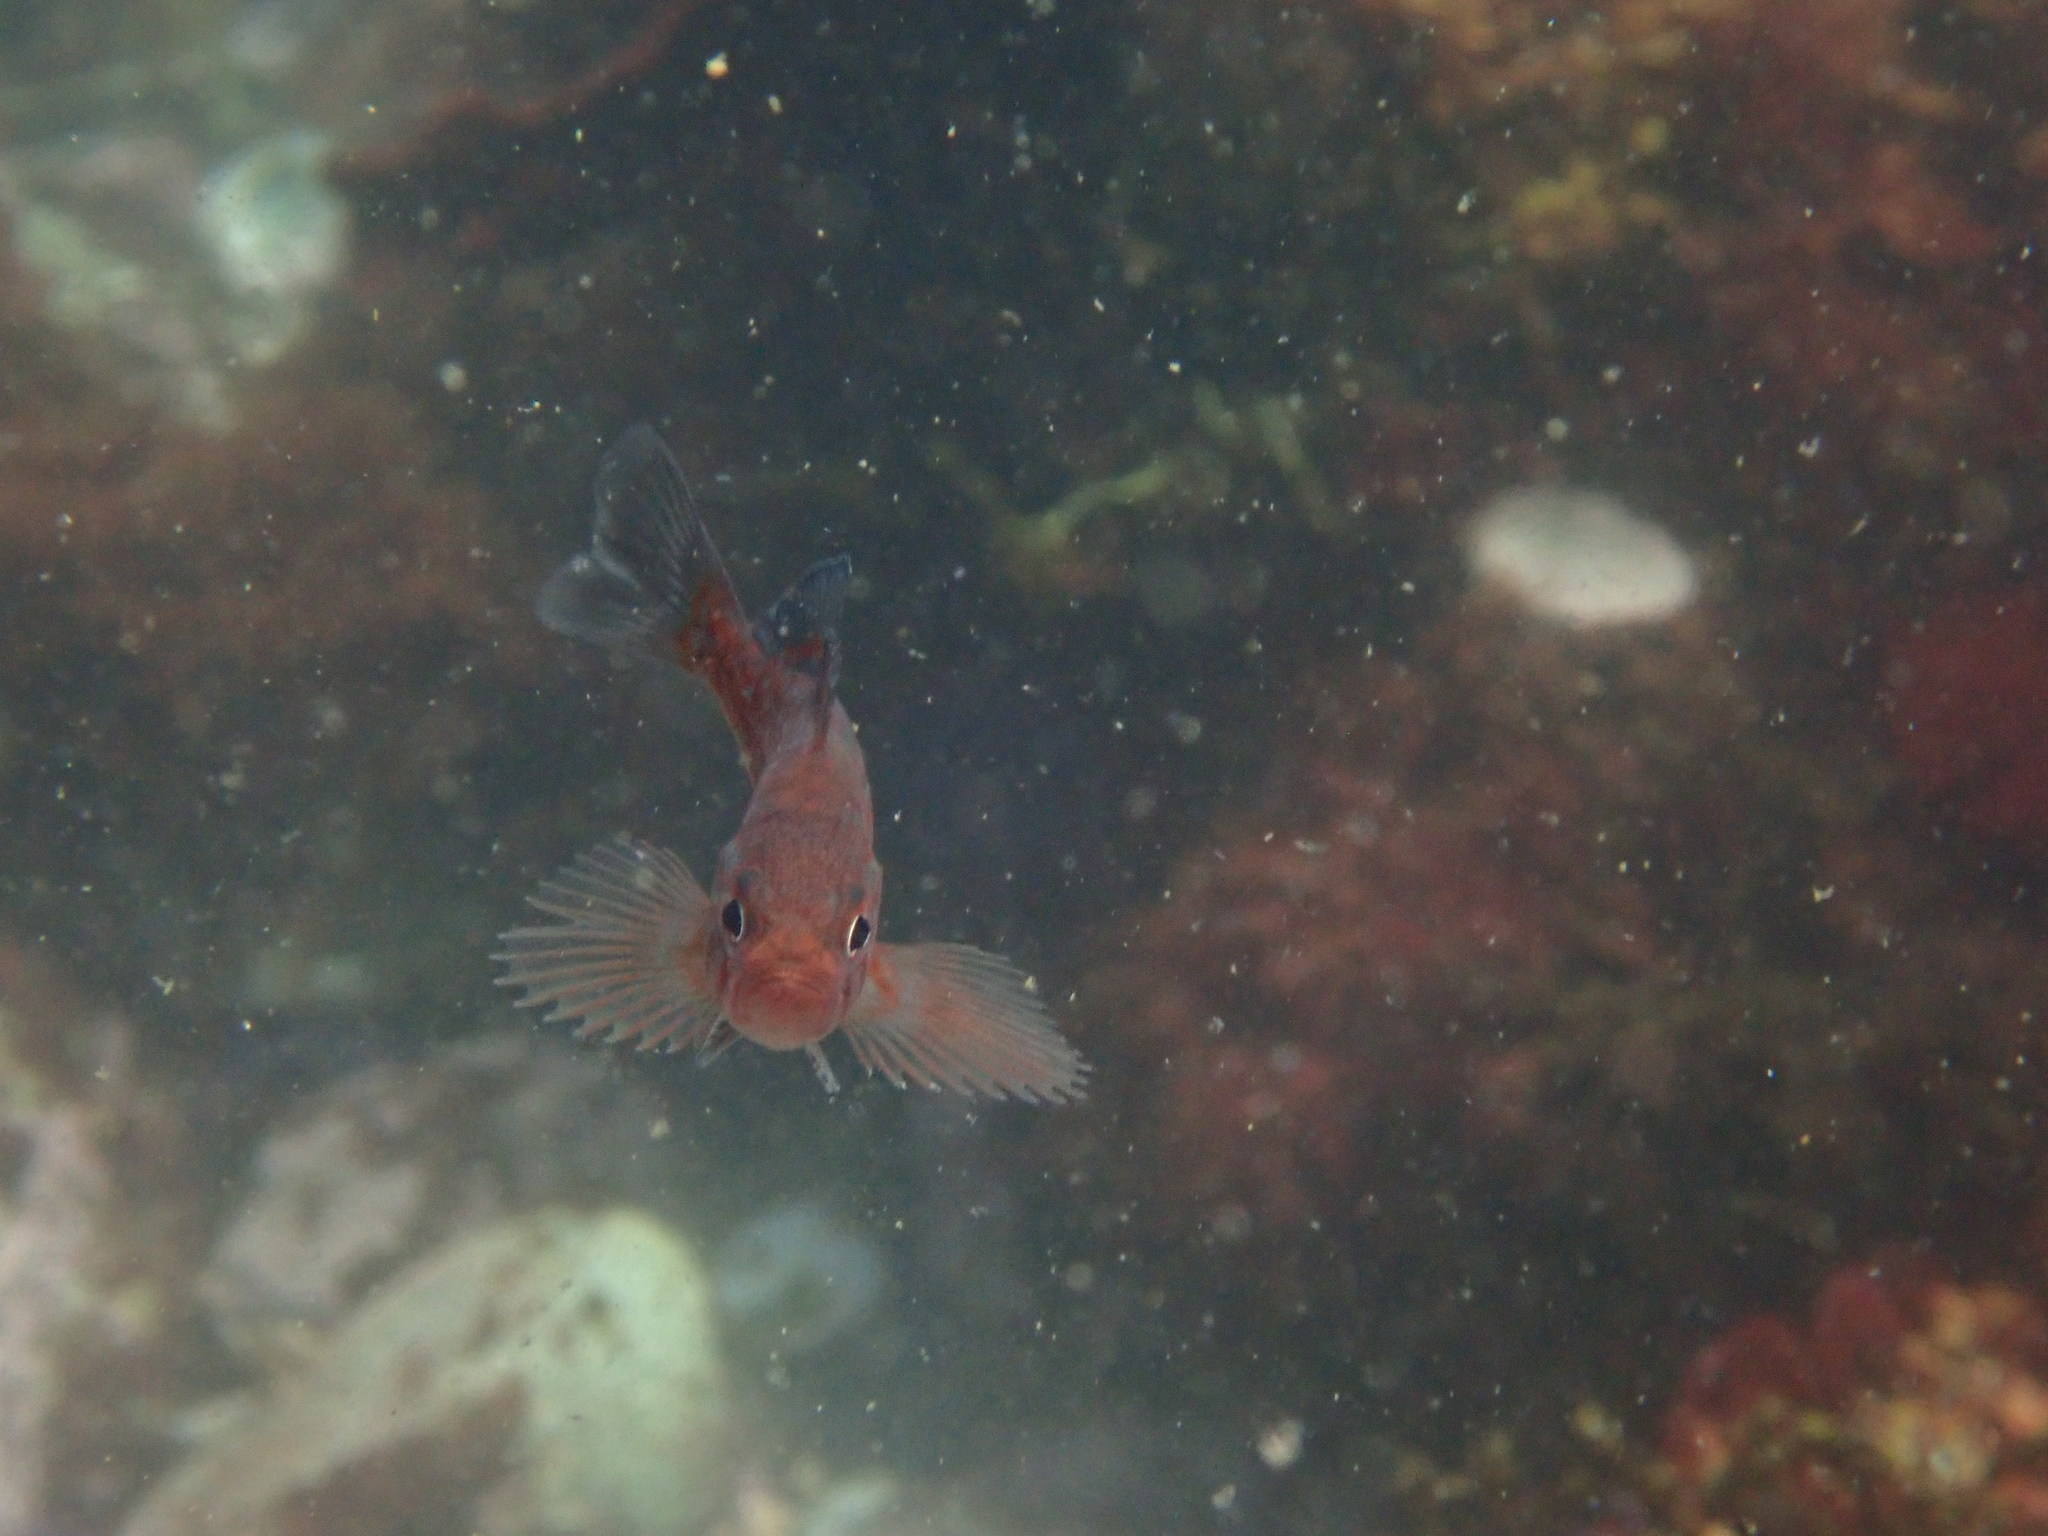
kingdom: Animalia
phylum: Chordata
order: Scorpaeniformes
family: Sebastidae
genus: Sebastes
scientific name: Sebastes mystinus
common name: Blue rockfish
